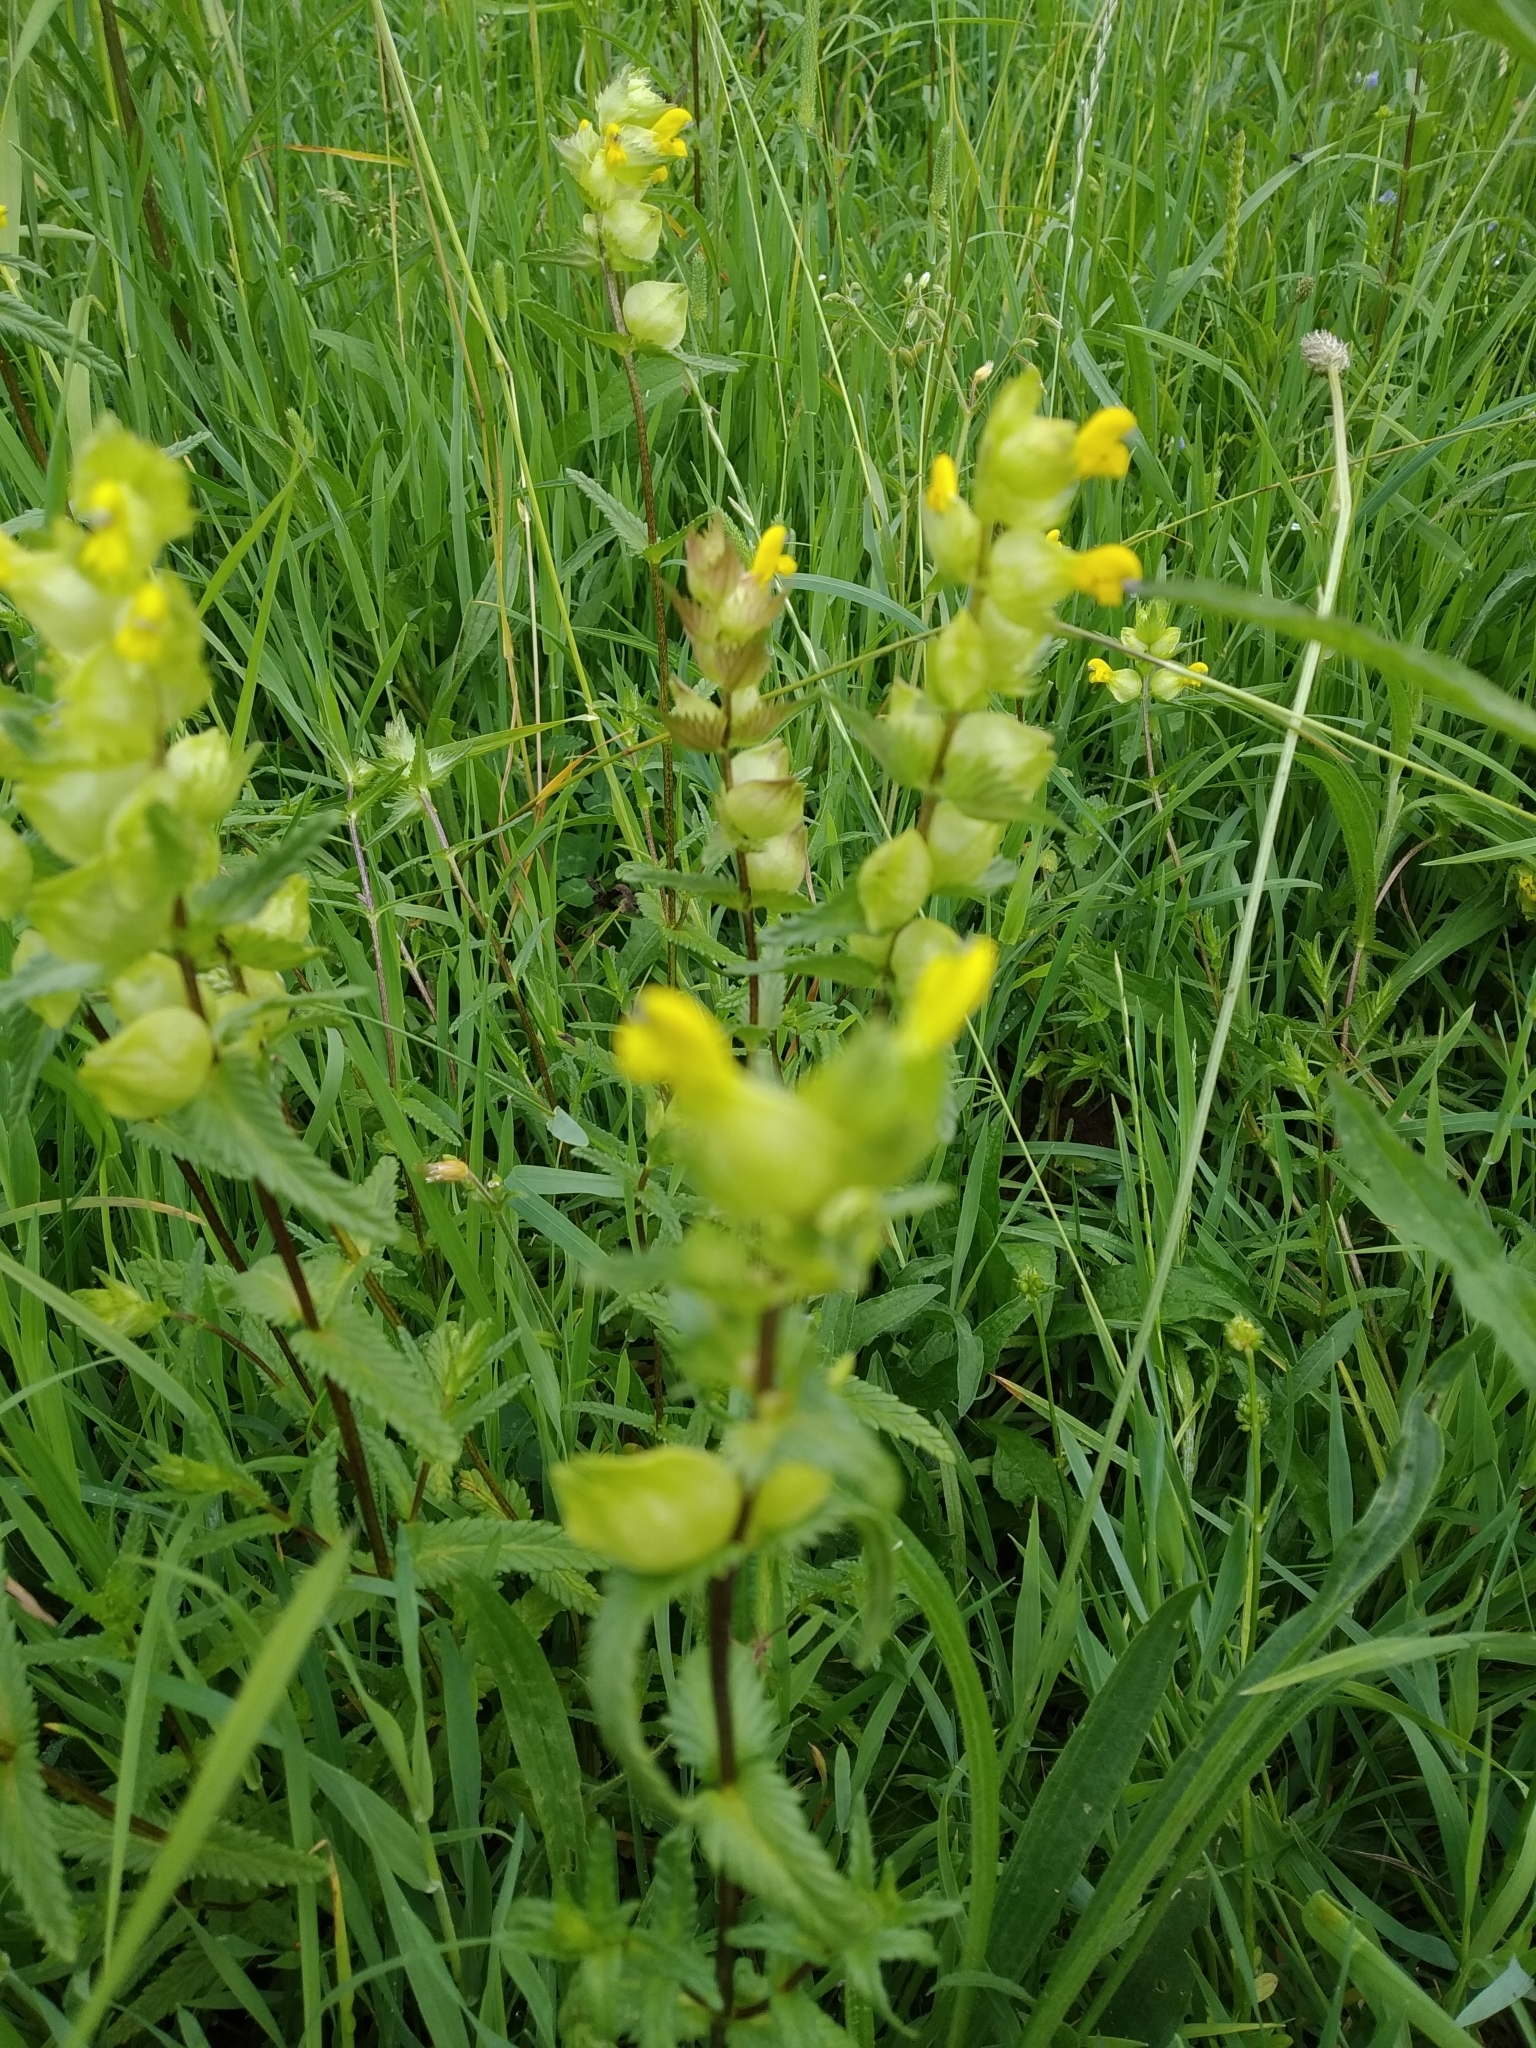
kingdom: Plantae
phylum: Tracheophyta
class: Magnoliopsida
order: Lamiales
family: Orobanchaceae
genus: Rhinanthus
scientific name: Rhinanthus minor
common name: Yellow-rattle
